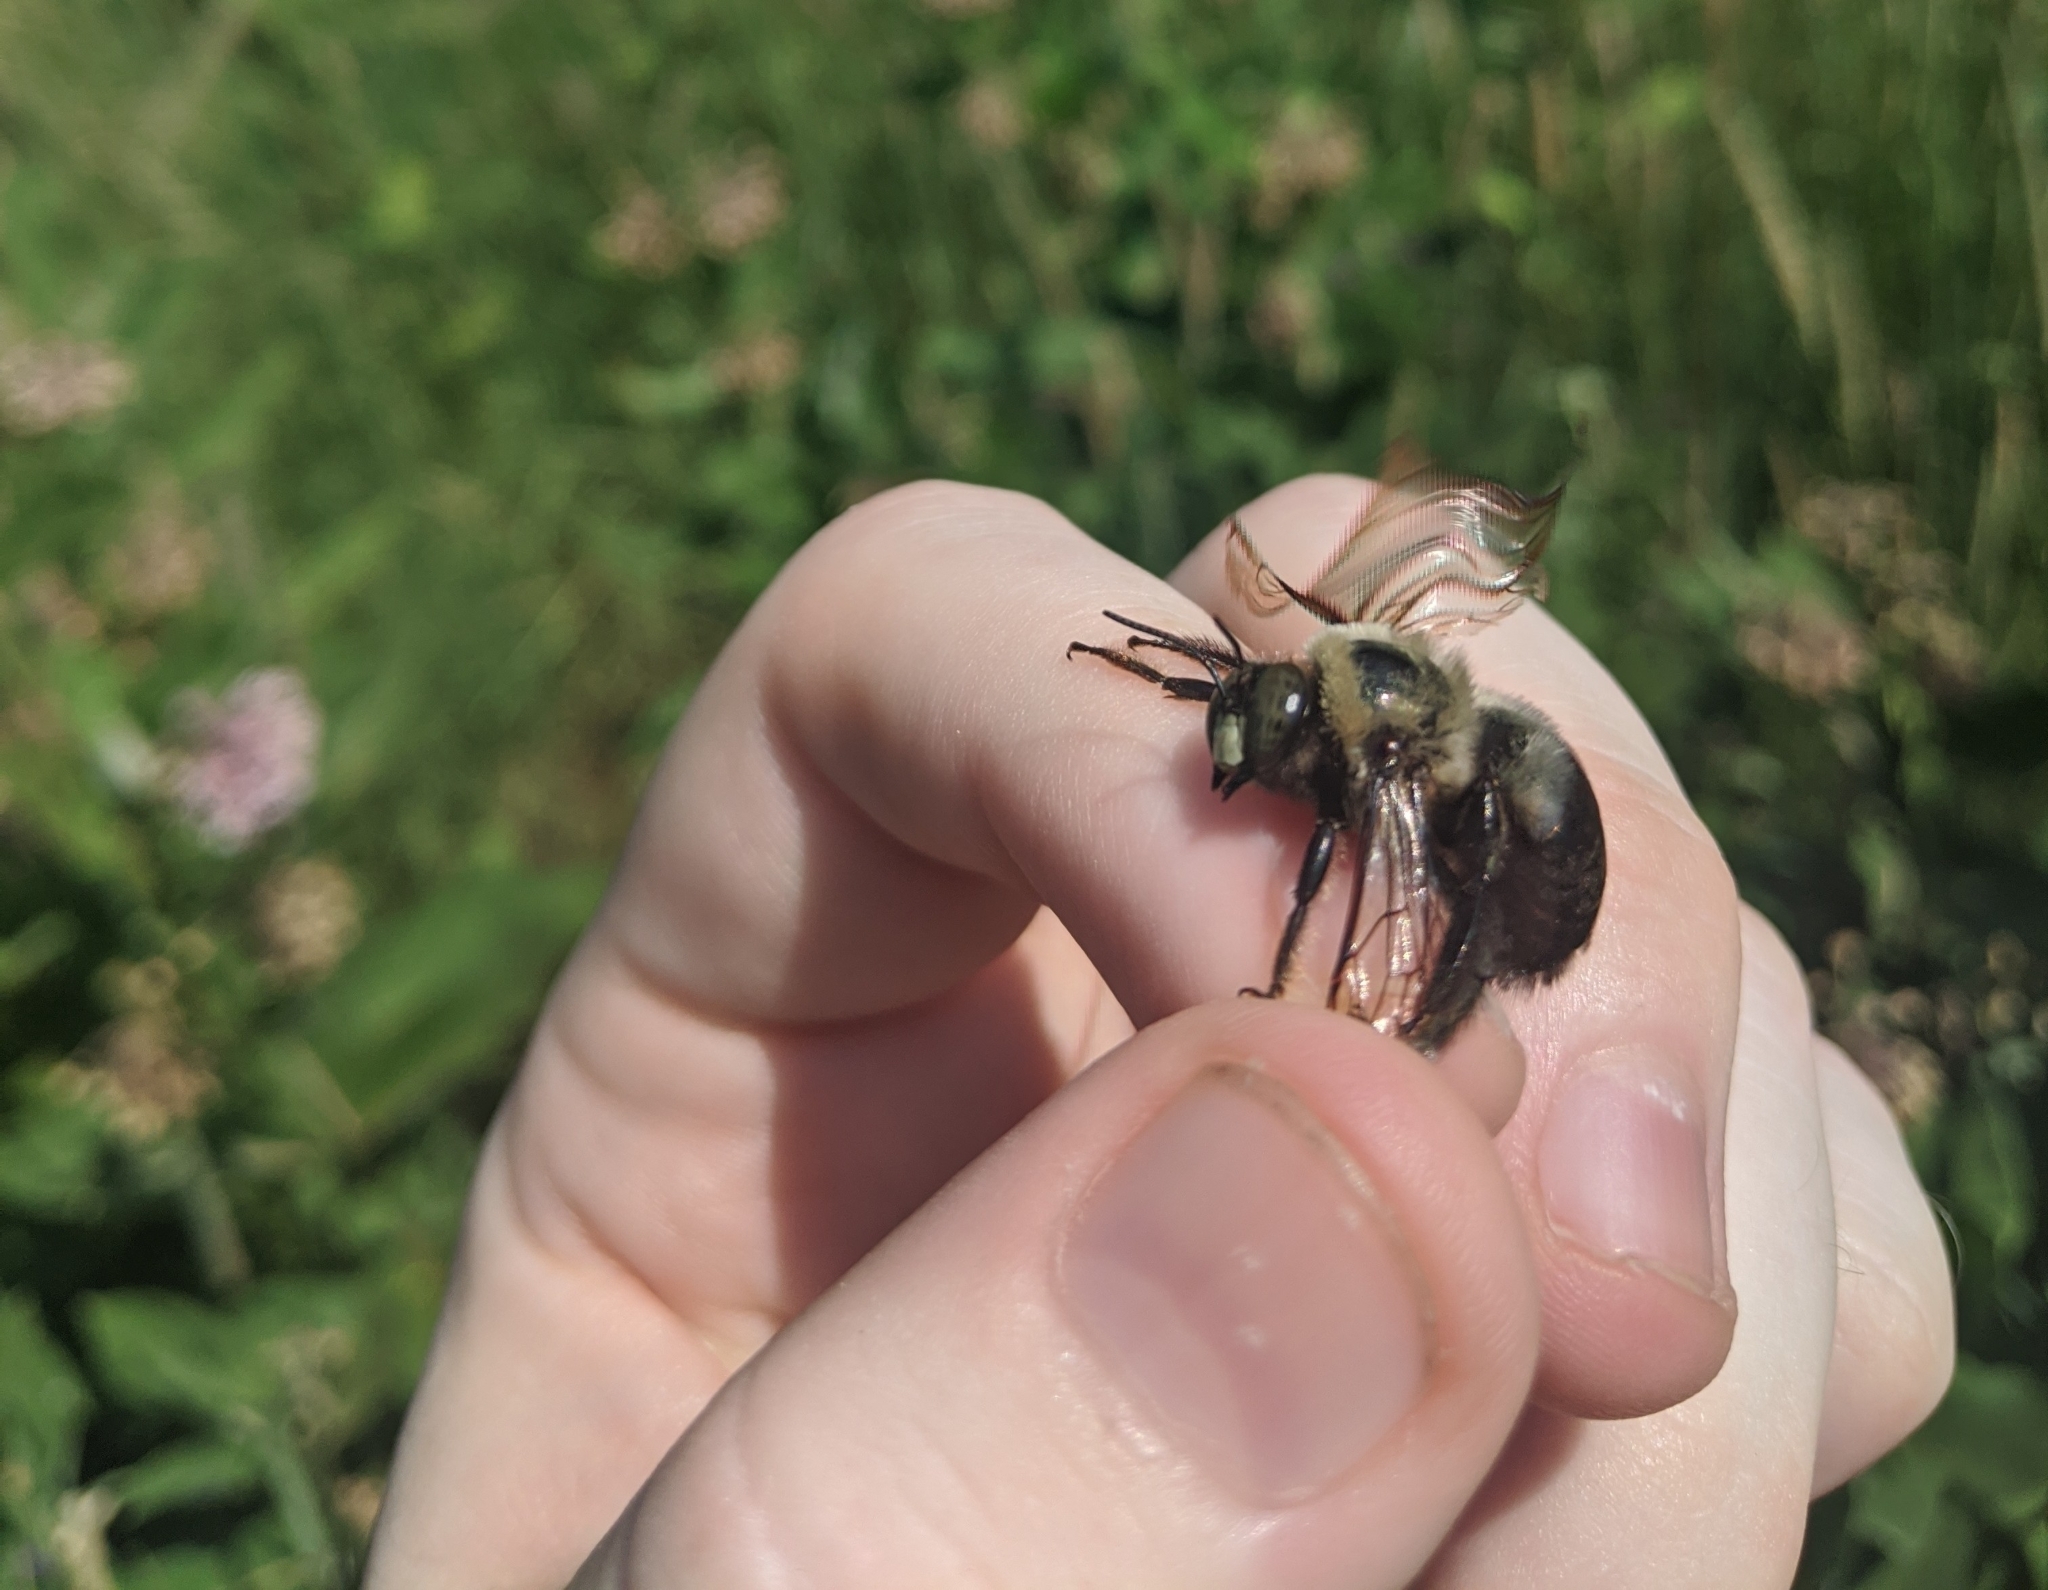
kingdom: Animalia
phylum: Arthropoda
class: Insecta
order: Hymenoptera
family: Apidae
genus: Xylocopa
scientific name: Xylocopa virginica
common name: Carpenter bee
